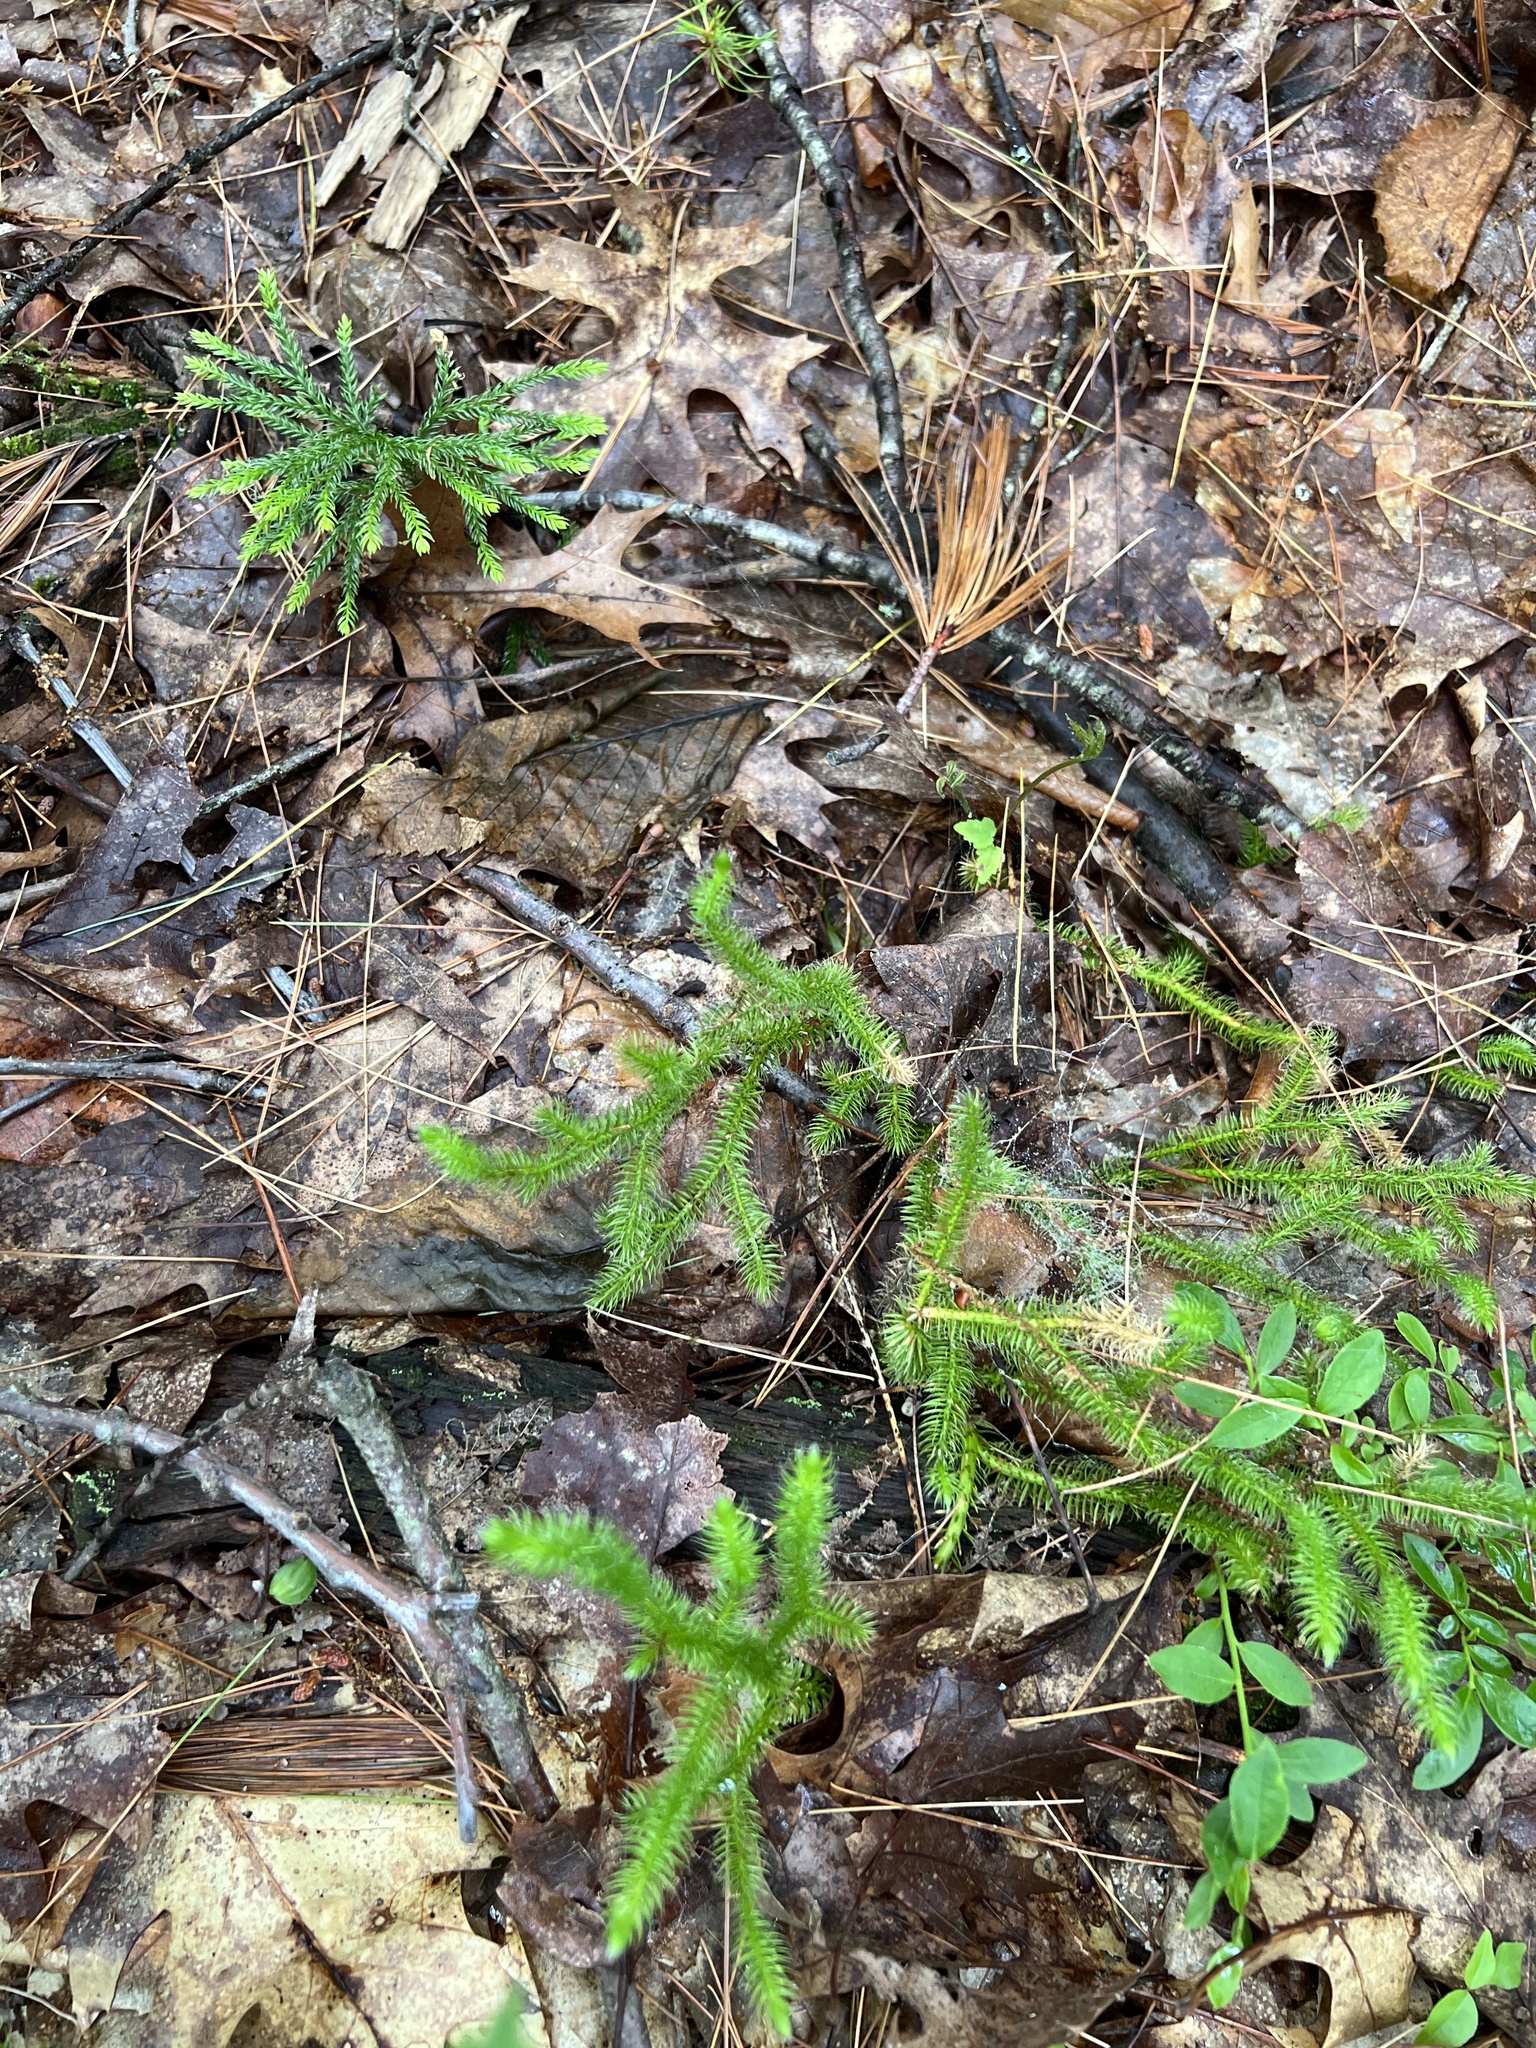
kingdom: Plantae
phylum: Tracheophyta
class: Lycopodiopsida
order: Lycopodiales
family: Lycopodiaceae
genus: Lycopodium
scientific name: Lycopodium clavatum
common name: Stag's-horn clubmoss
